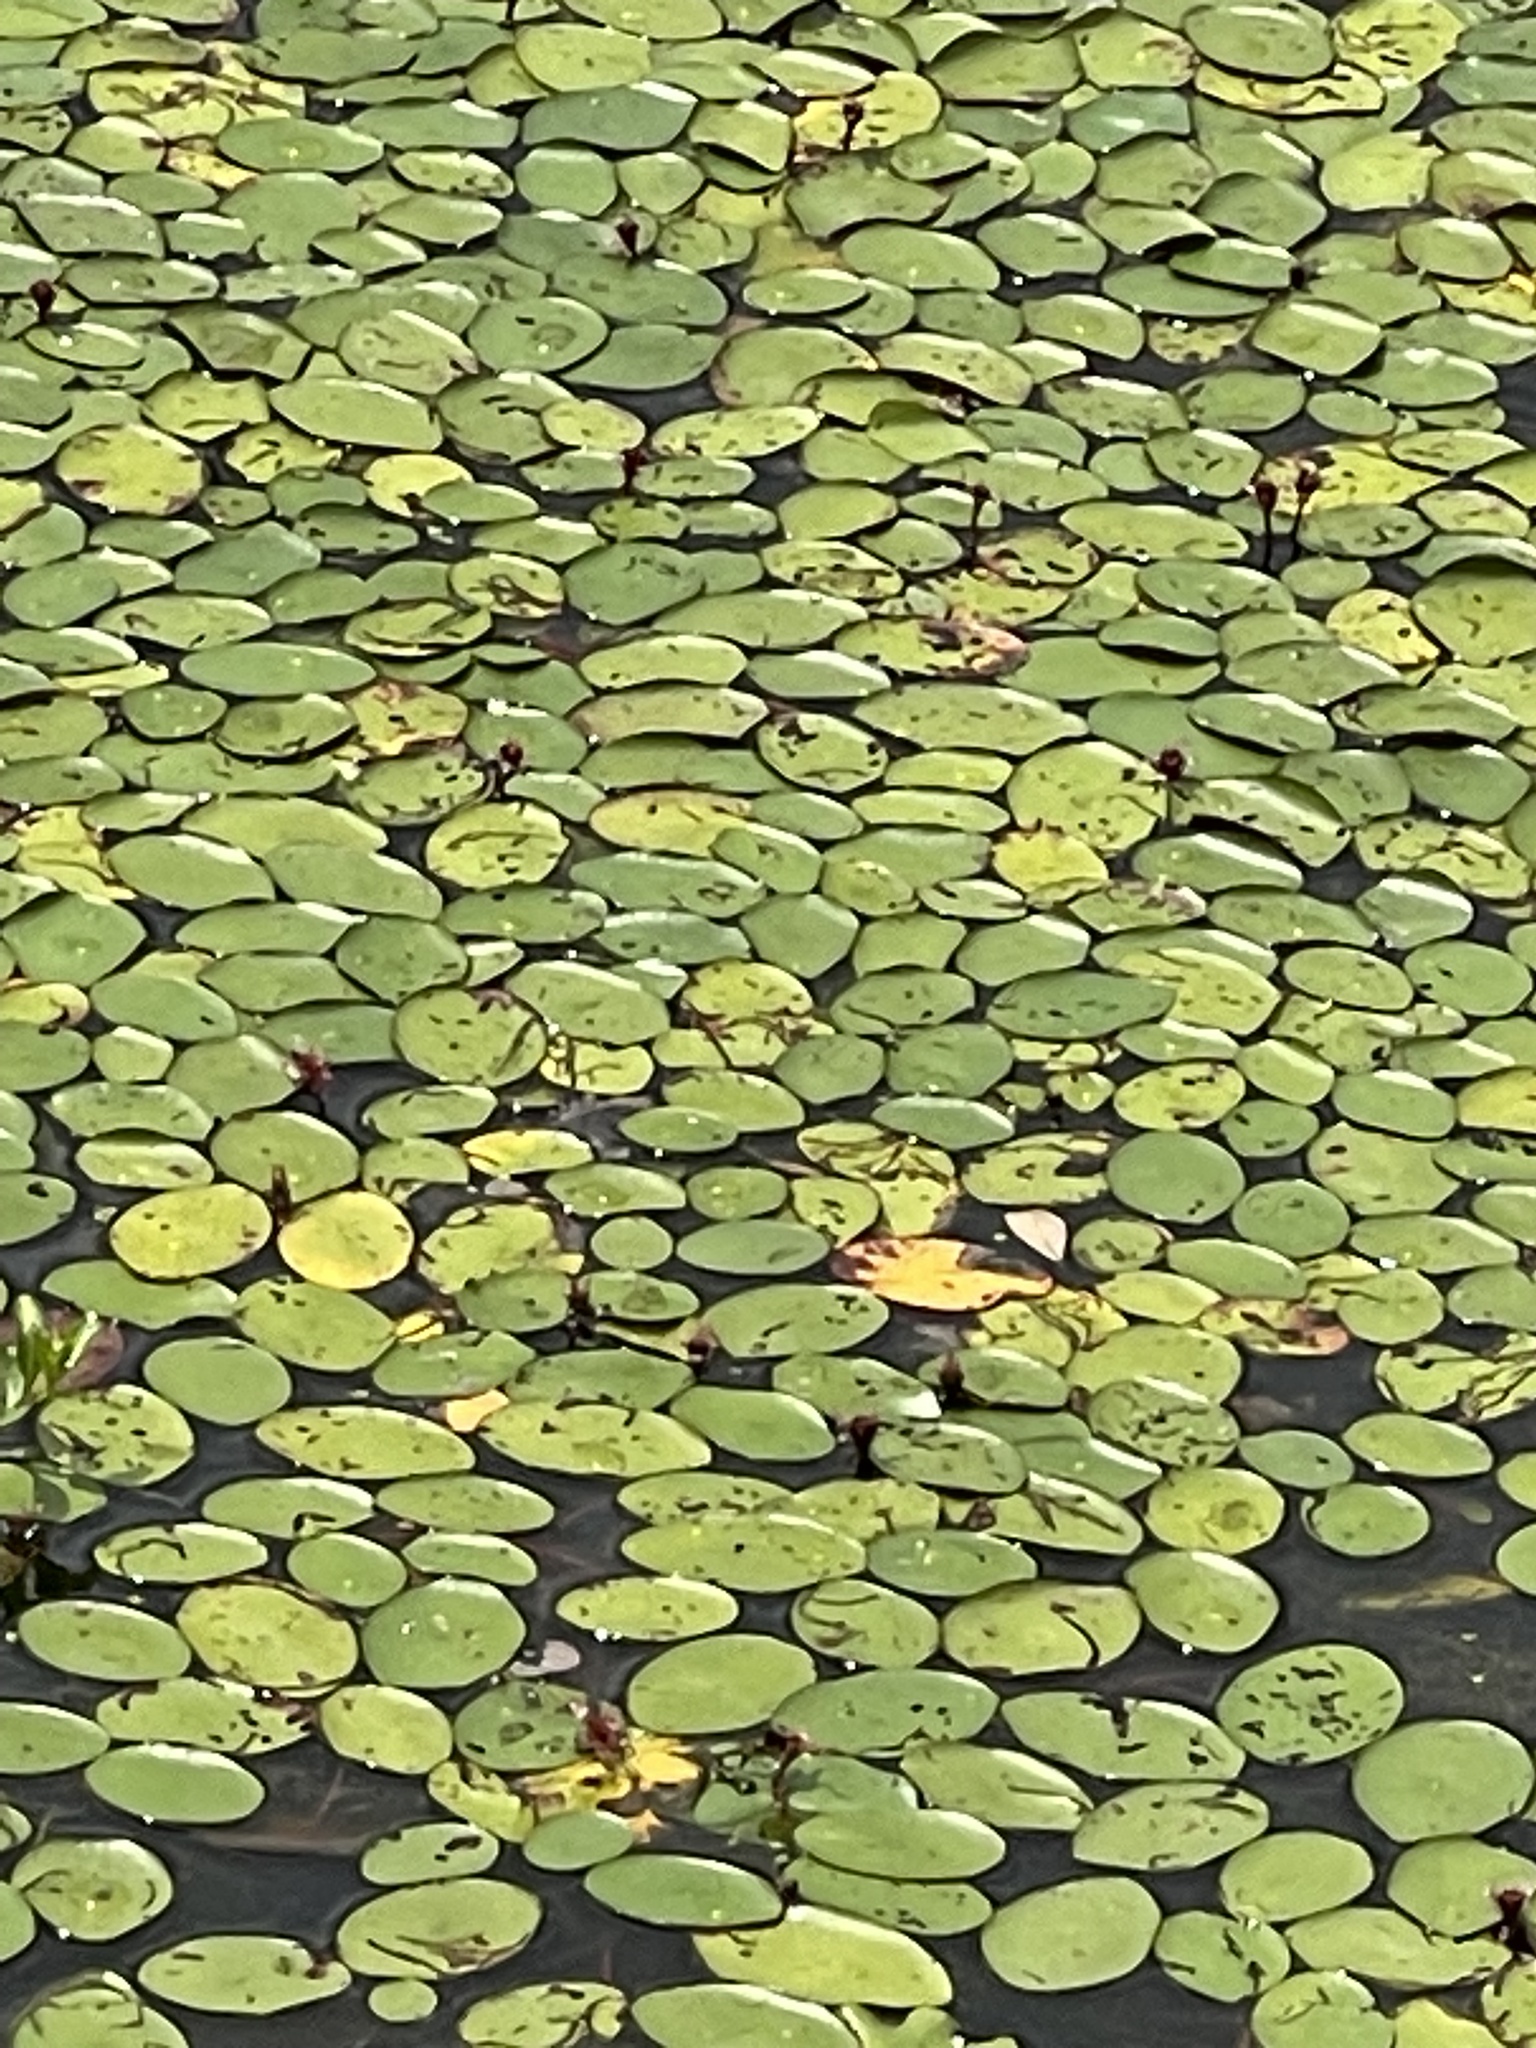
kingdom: Plantae
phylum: Tracheophyta
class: Magnoliopsida
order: Nymphaeales
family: Cabombaceae
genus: Brasenia
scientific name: Brasenia schreberi
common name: Water-shield
